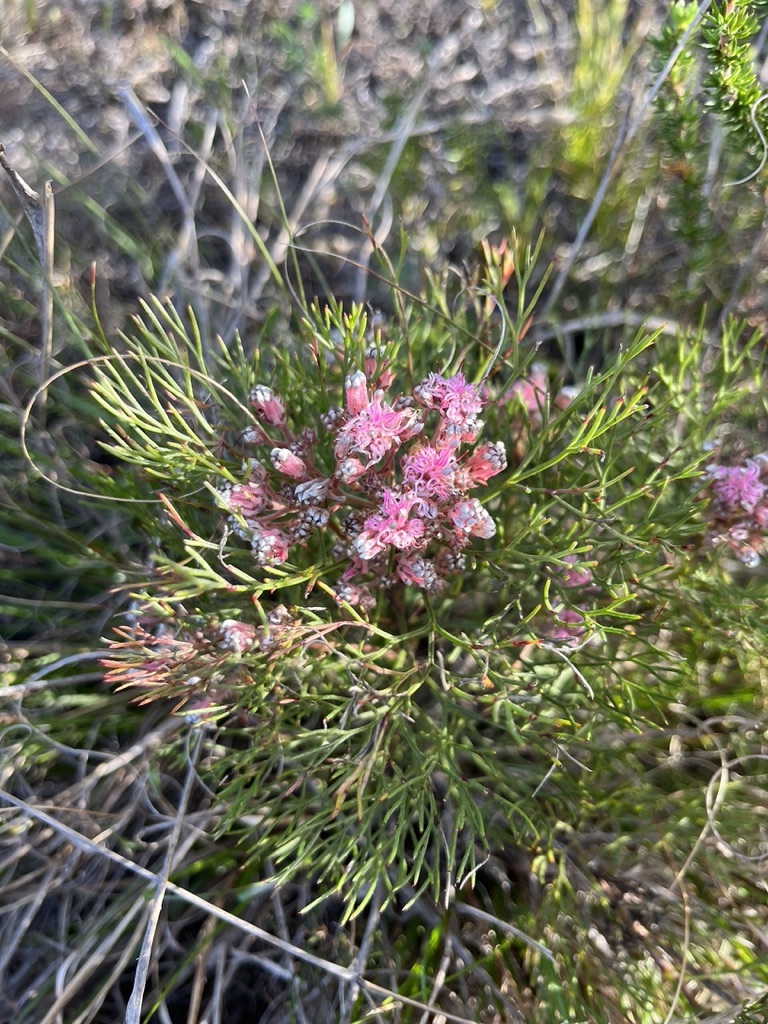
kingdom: Plantae
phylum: Tracheophyta
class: Magnoliopsida
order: Proteales
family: Proteaceae
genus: Serruria
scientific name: Serruria fasciflora
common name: Common pin spiderhead
